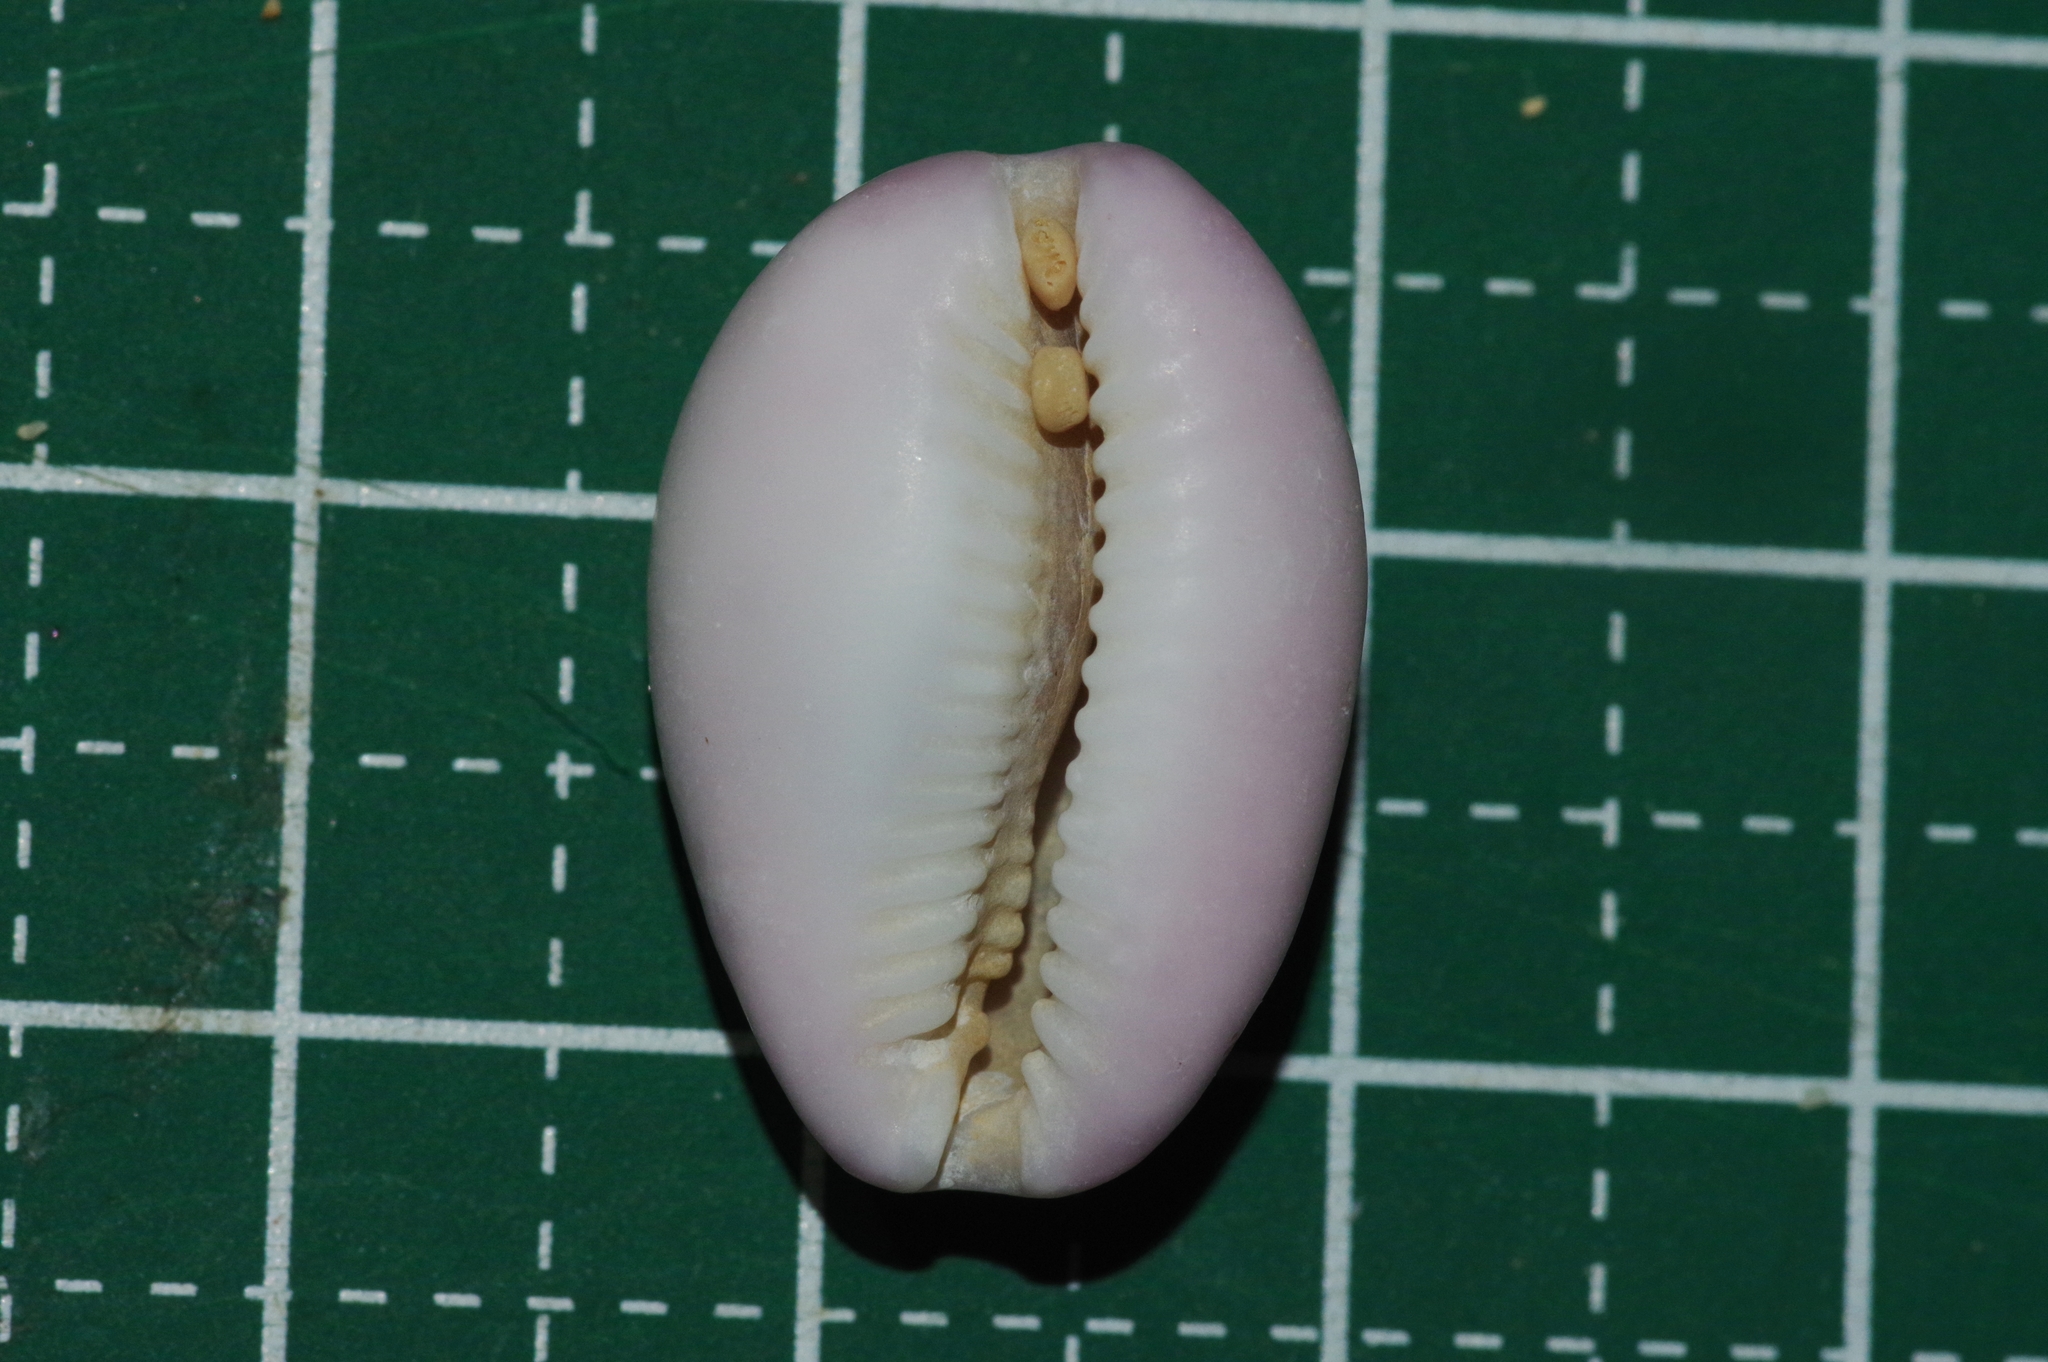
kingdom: Animalia
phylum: Mollusca
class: Gastropoda
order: Littorinimorpha
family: Cypraeidae
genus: Naria
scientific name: Naria poraria
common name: Cowrie
